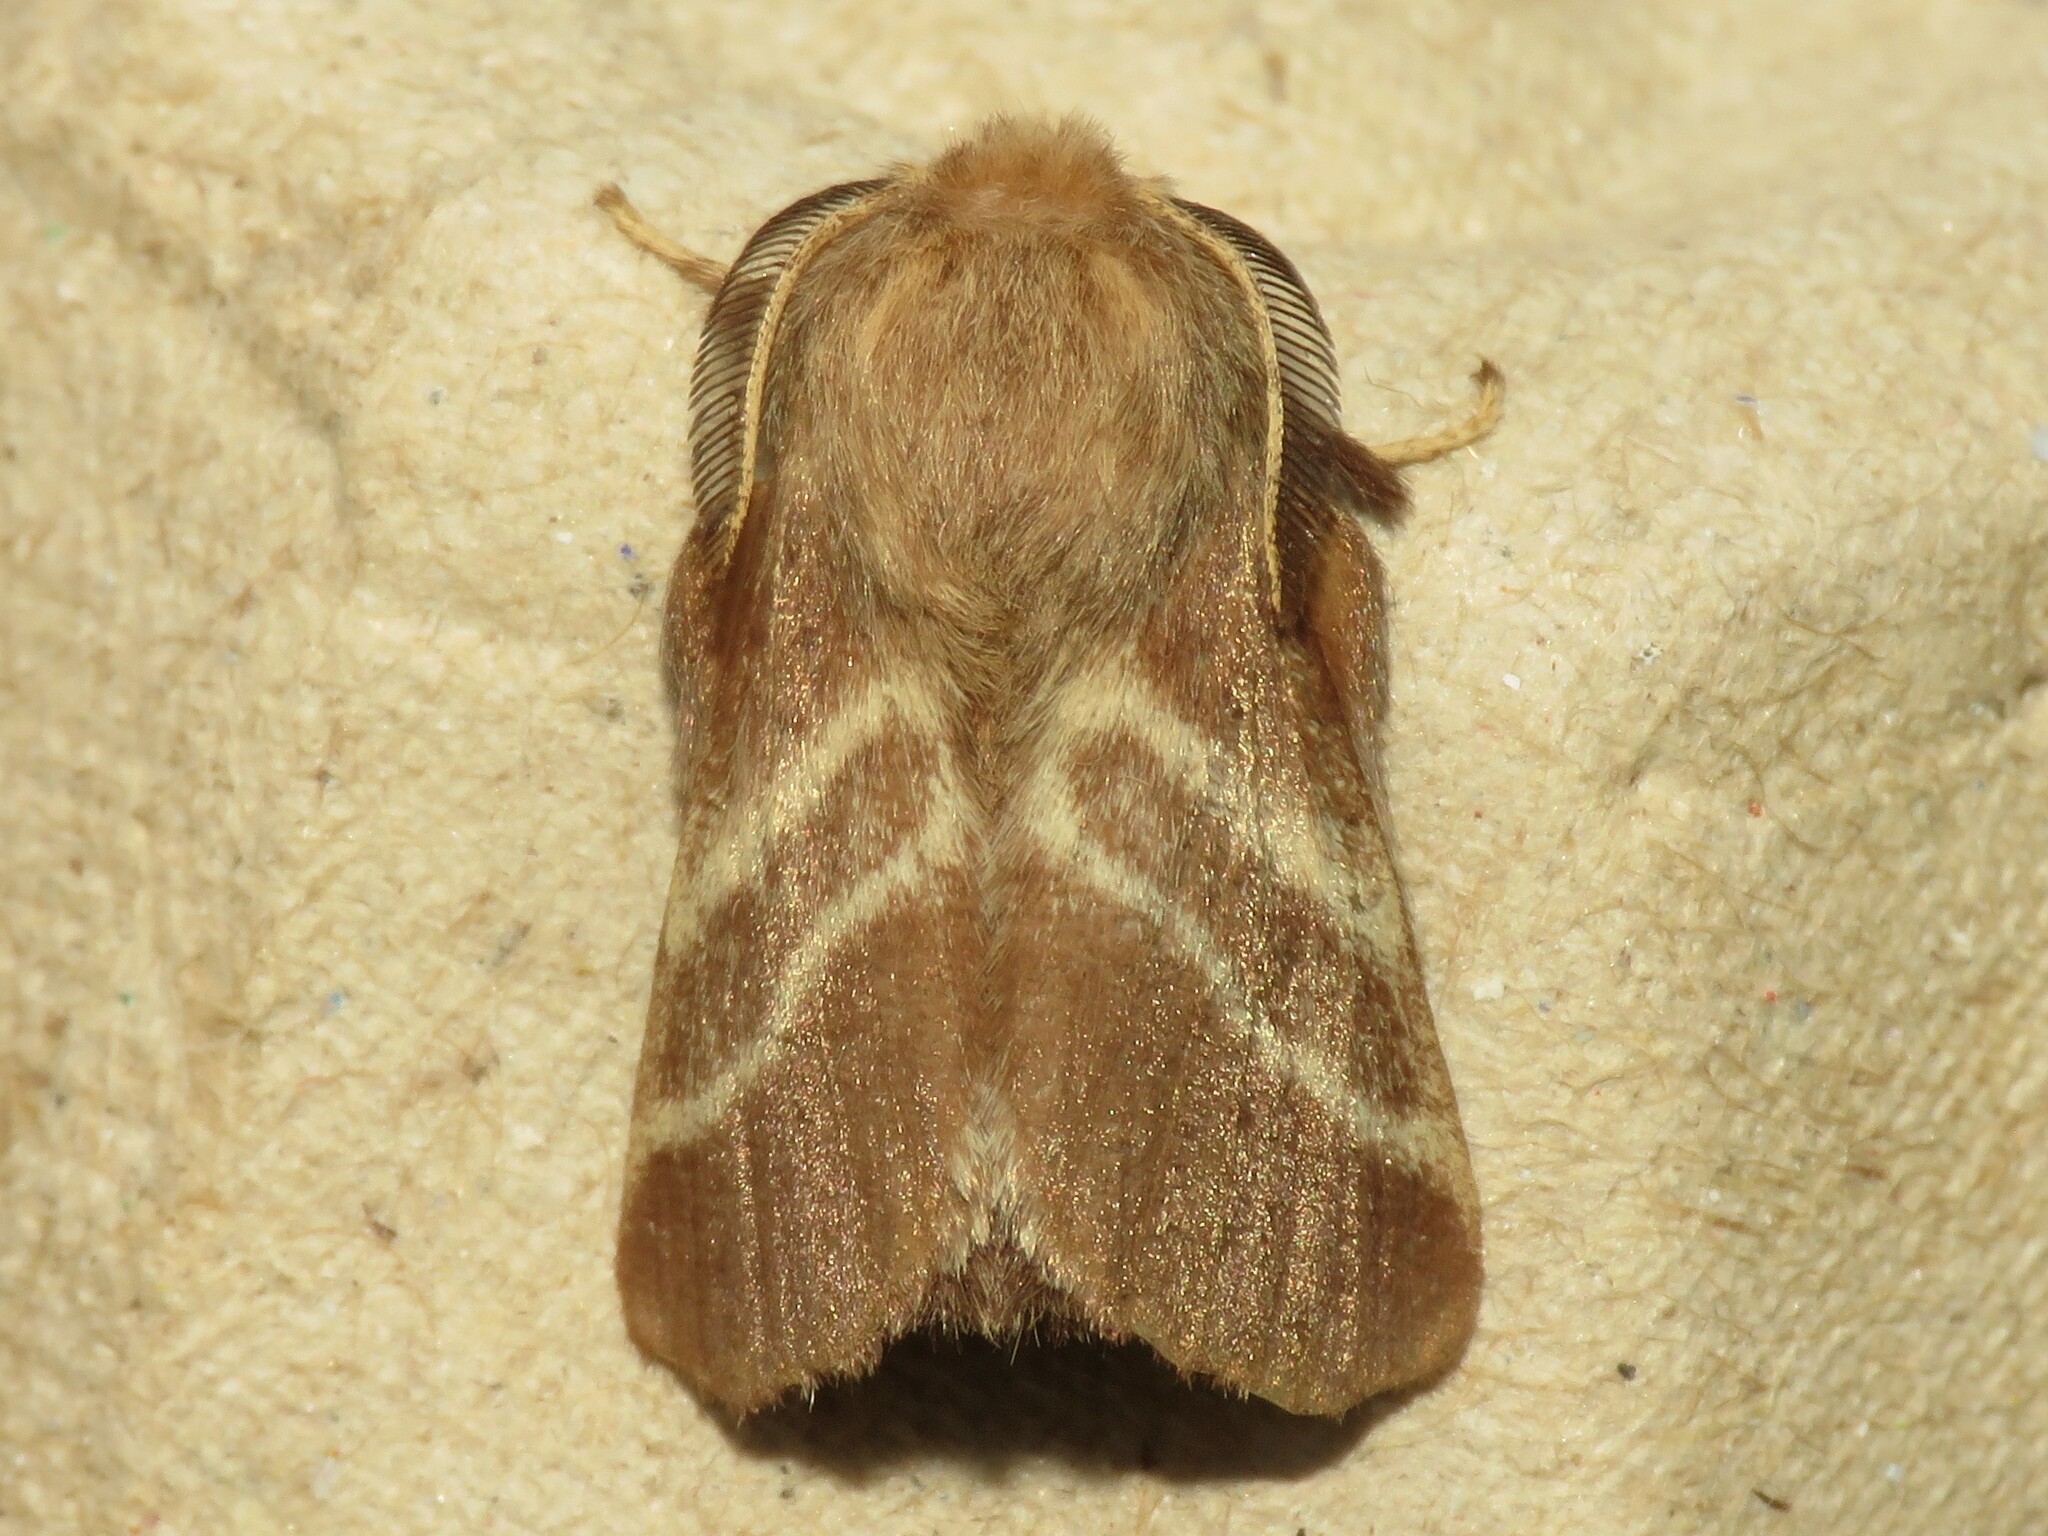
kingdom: Animalia
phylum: Arthropoda
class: Insecta
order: Lepidoptera
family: Lasiocampidae
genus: Malacosoma
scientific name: Malacosoma americana
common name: Eastern tent caterpillar moth
